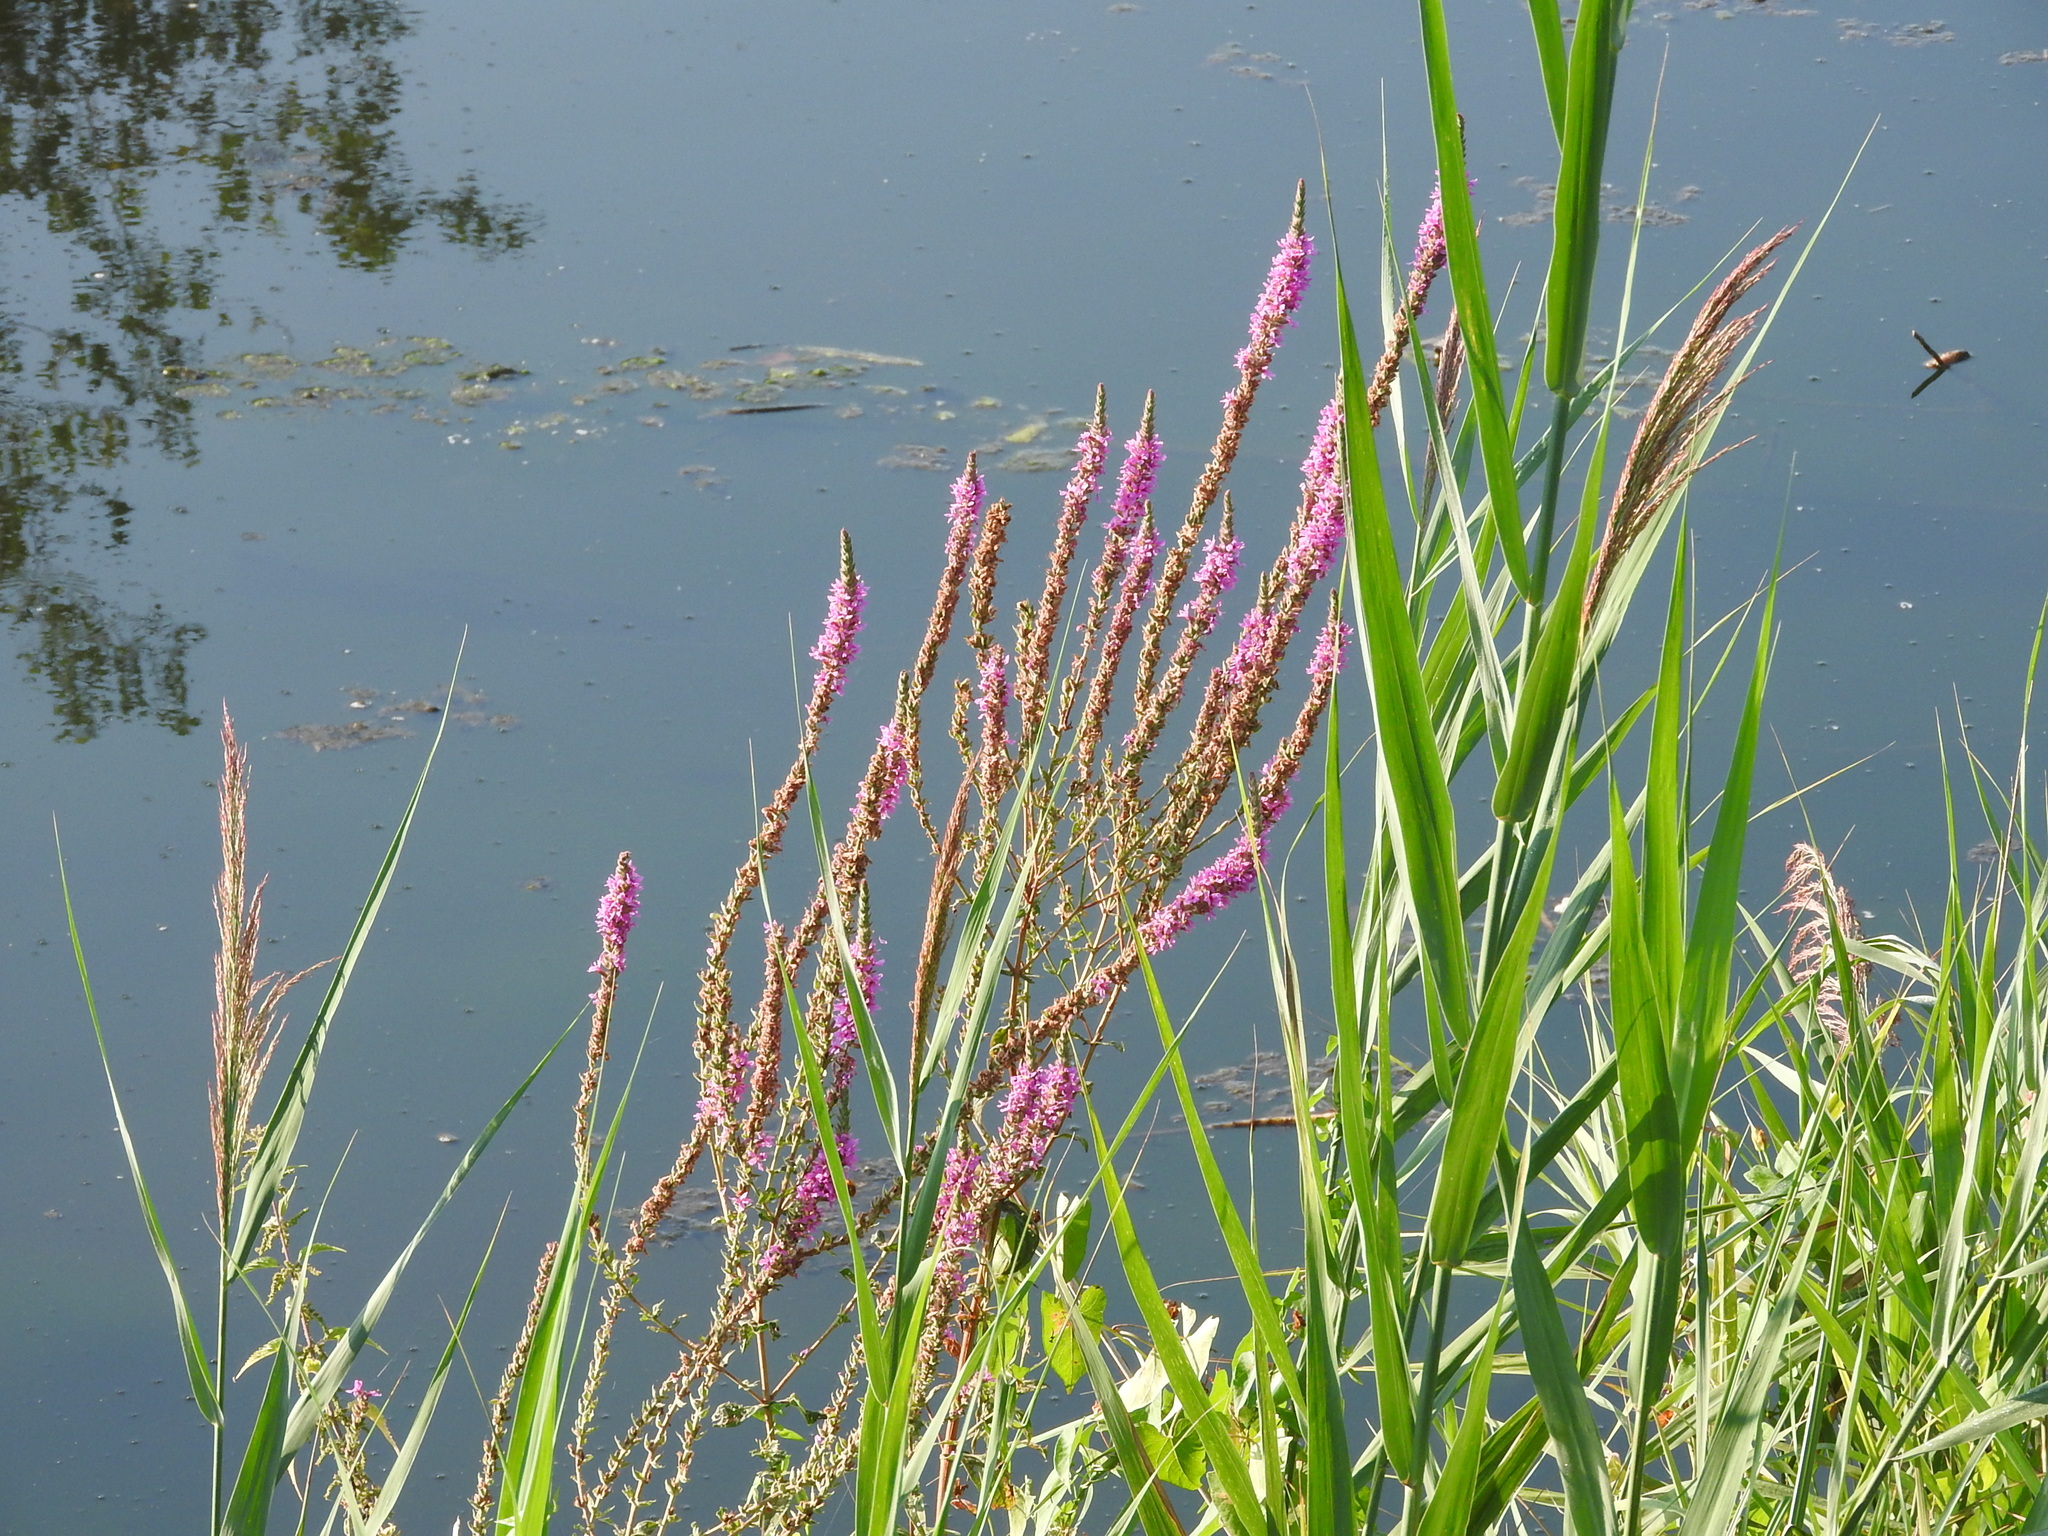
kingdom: Plantae
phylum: Tracheophyta
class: Magnoliopsida
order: Myrtales
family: Lythraceae
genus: Lythrum
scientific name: Lythrum salicaria
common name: Purple loosestrife
